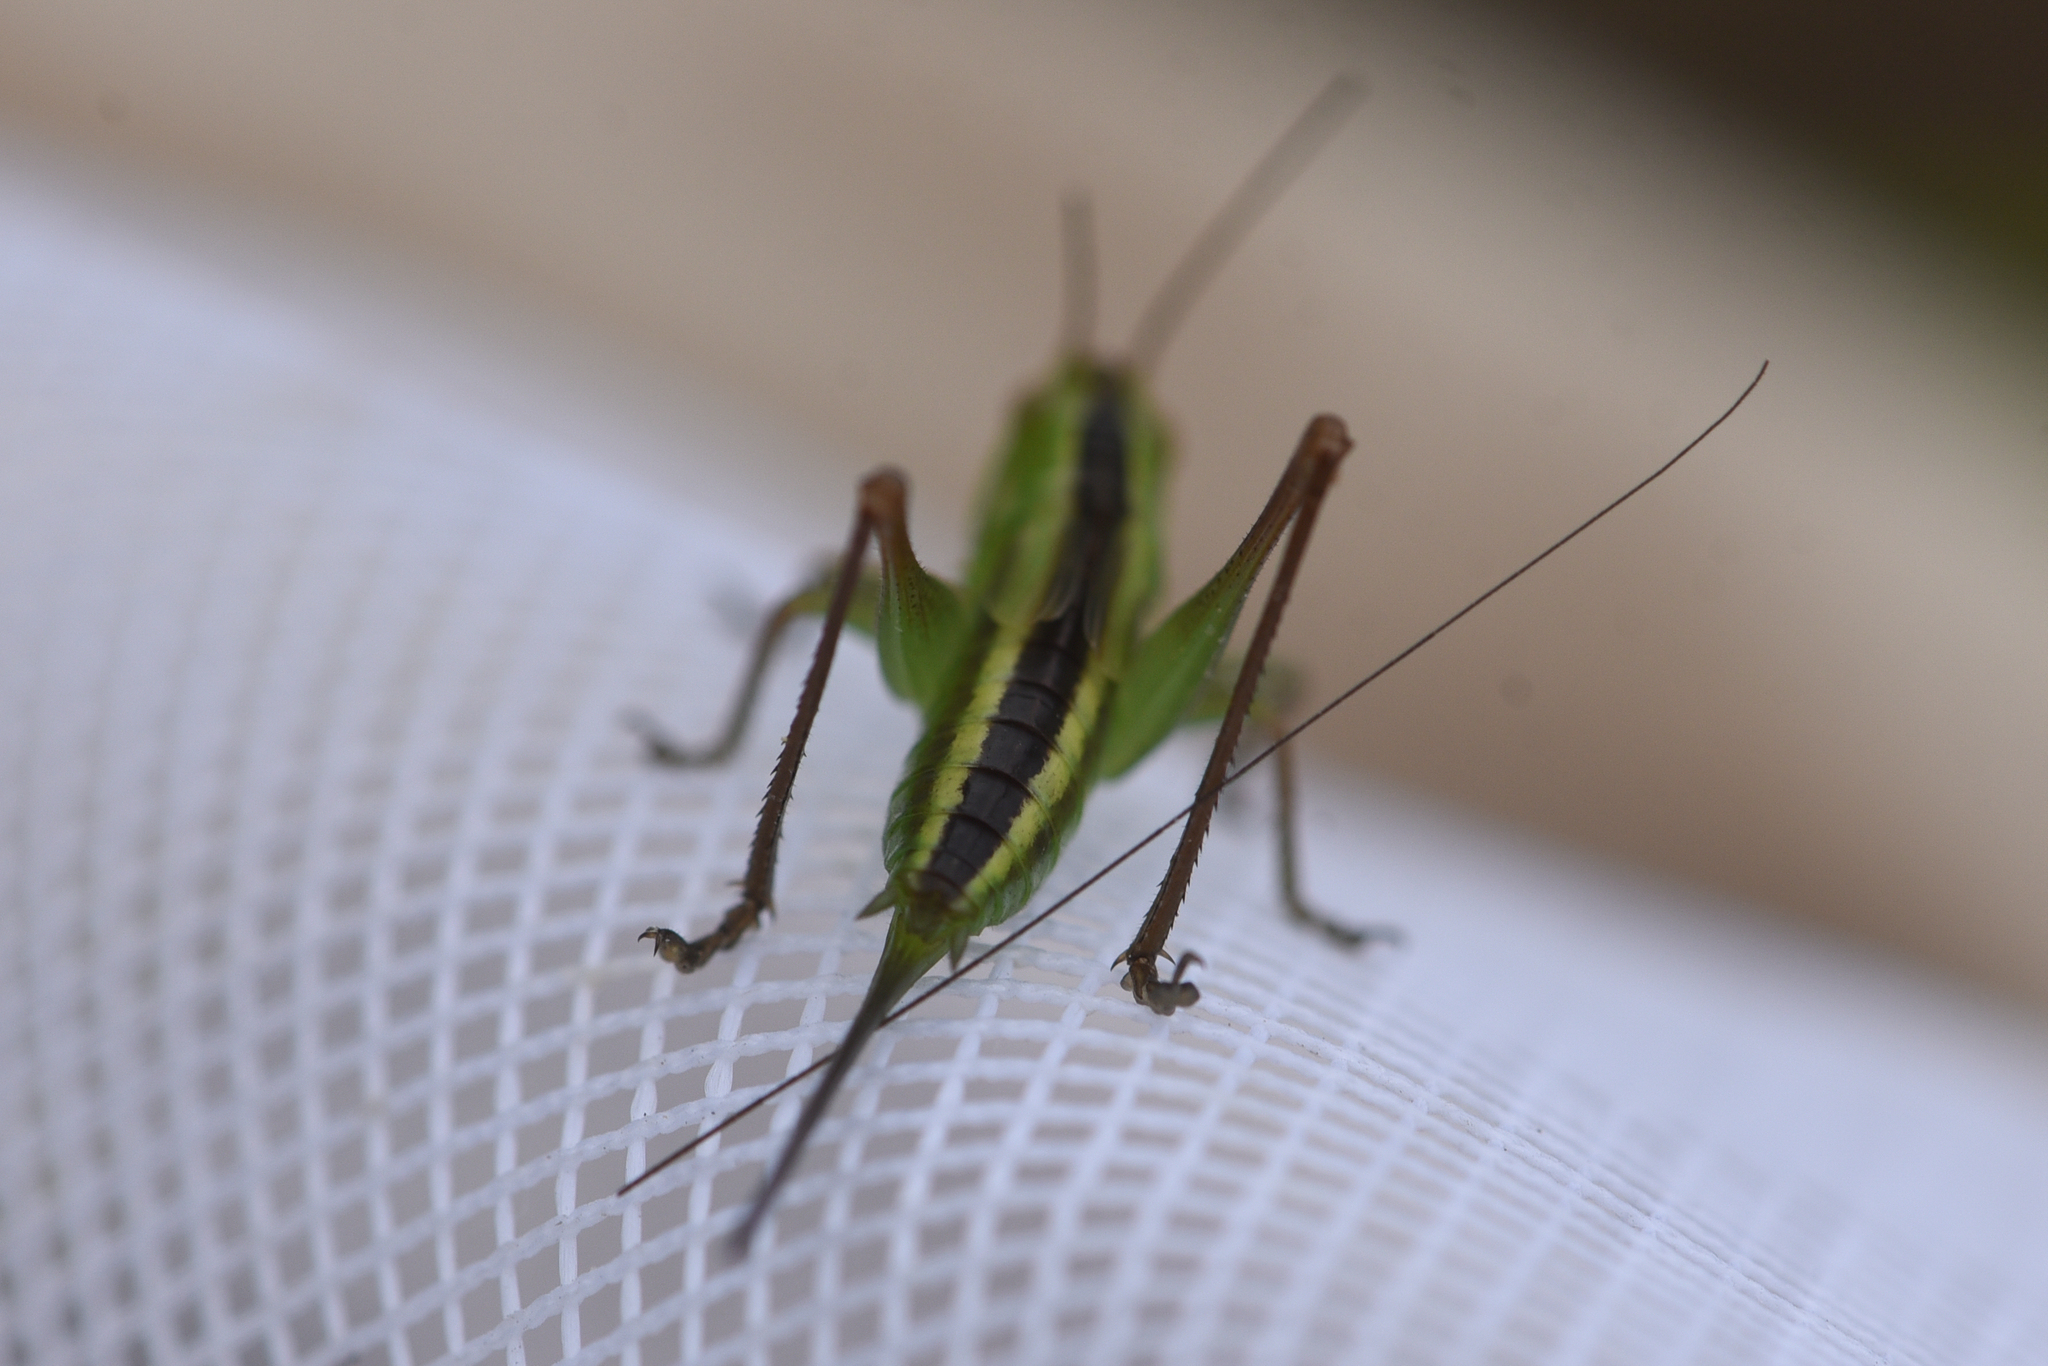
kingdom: Animalia
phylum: Arthropoda
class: Insecta
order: Orthoptera
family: Tettigoniidae
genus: Conocephalus
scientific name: Conocephalus fasciatus
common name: Slender meadow katydid
